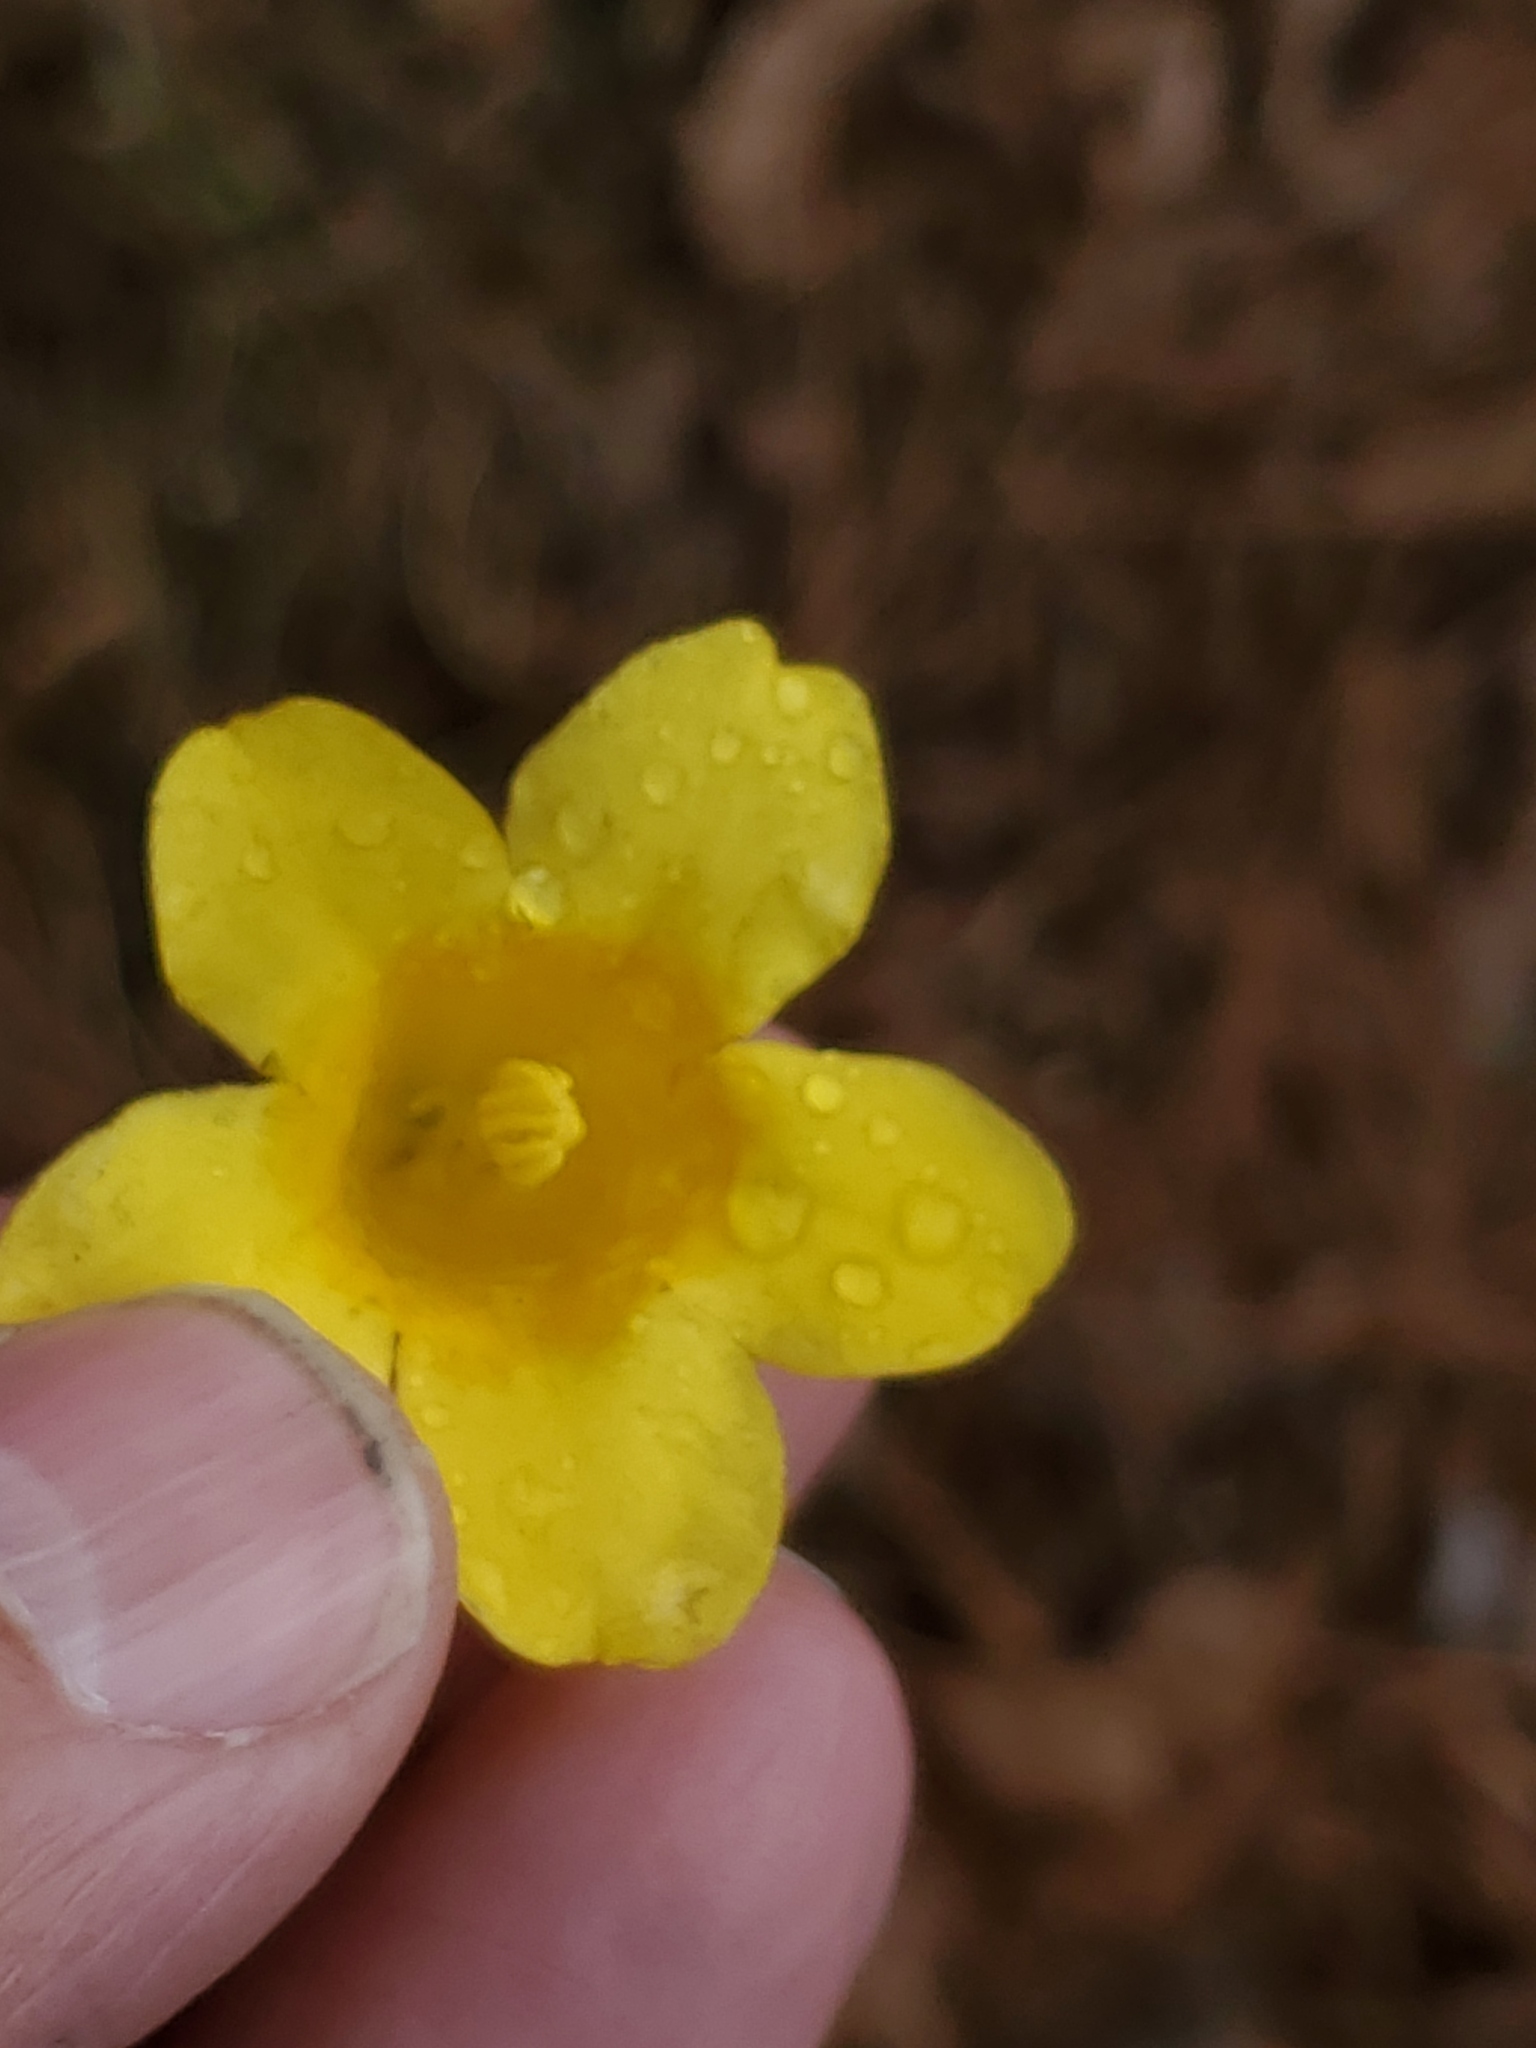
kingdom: Plantae
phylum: Tracheophyta
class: Magnoliopsida
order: Gentianales
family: Gelsemiaceae
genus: Gelsemium
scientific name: Gelsemium sempervirens
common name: Carolina-jasmine
